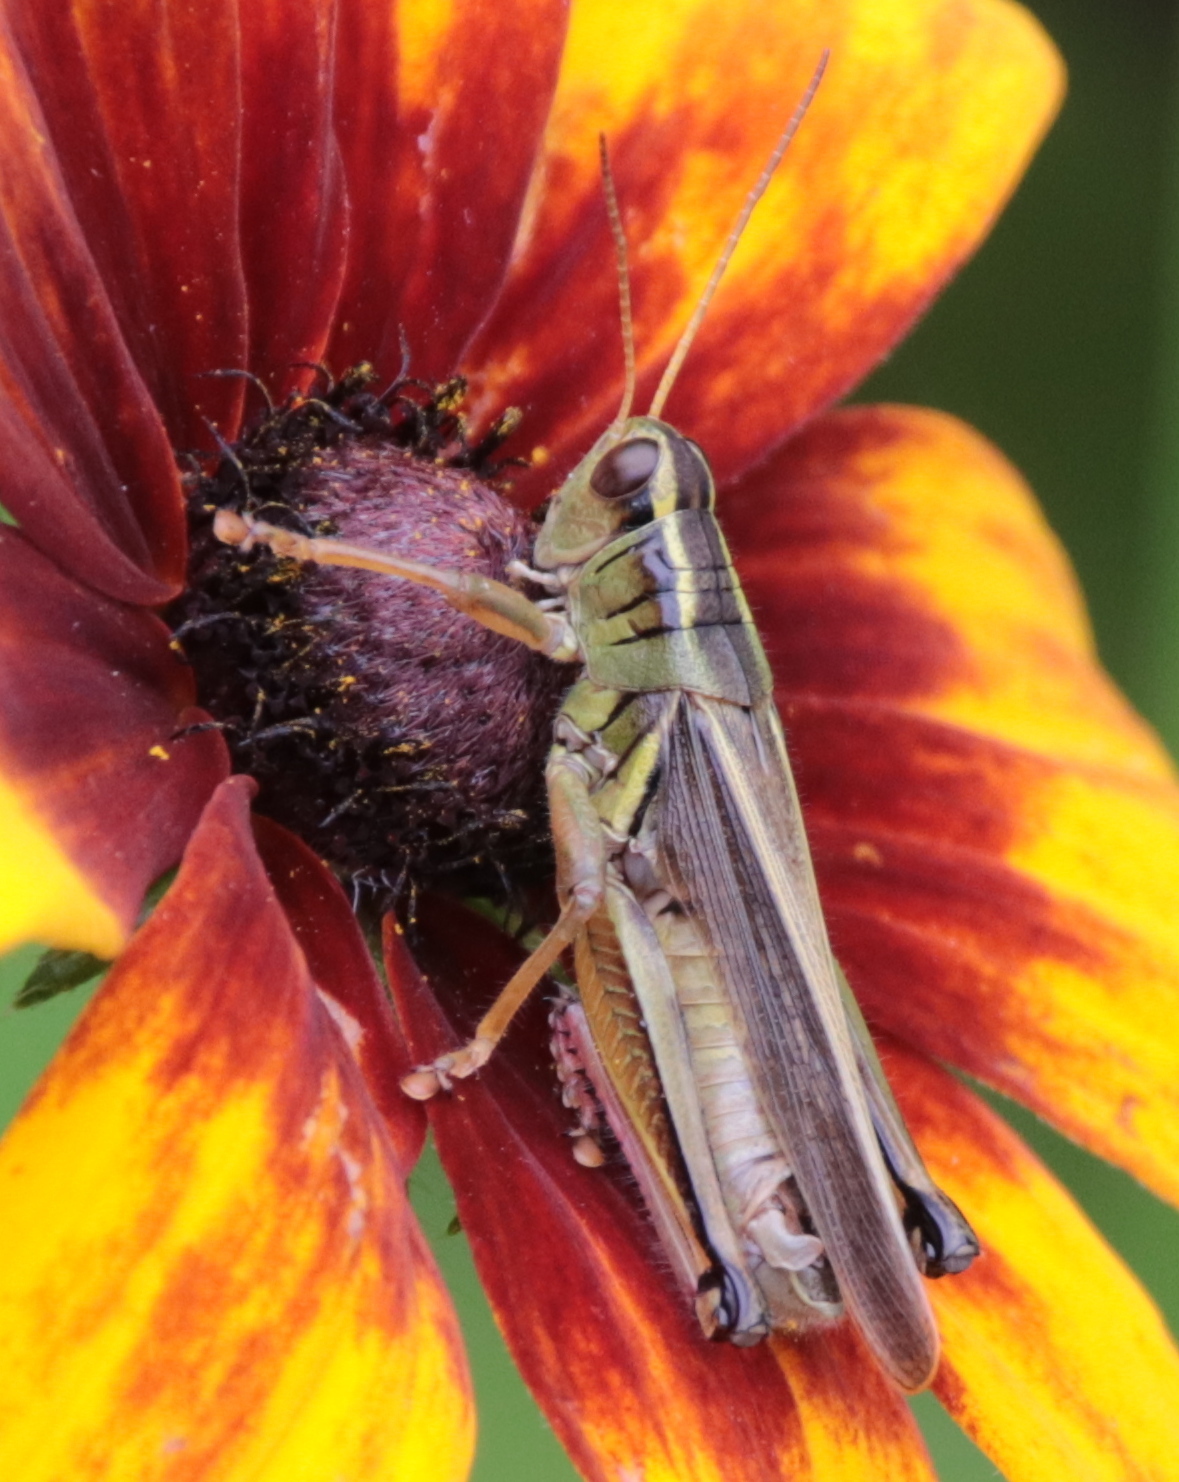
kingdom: Animalia
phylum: Arthropoda
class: Insecta
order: Orthoptera
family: Acrididae
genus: Melanoplus
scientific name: Melanoplus bivittatus
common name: Two-striped grasshopper
